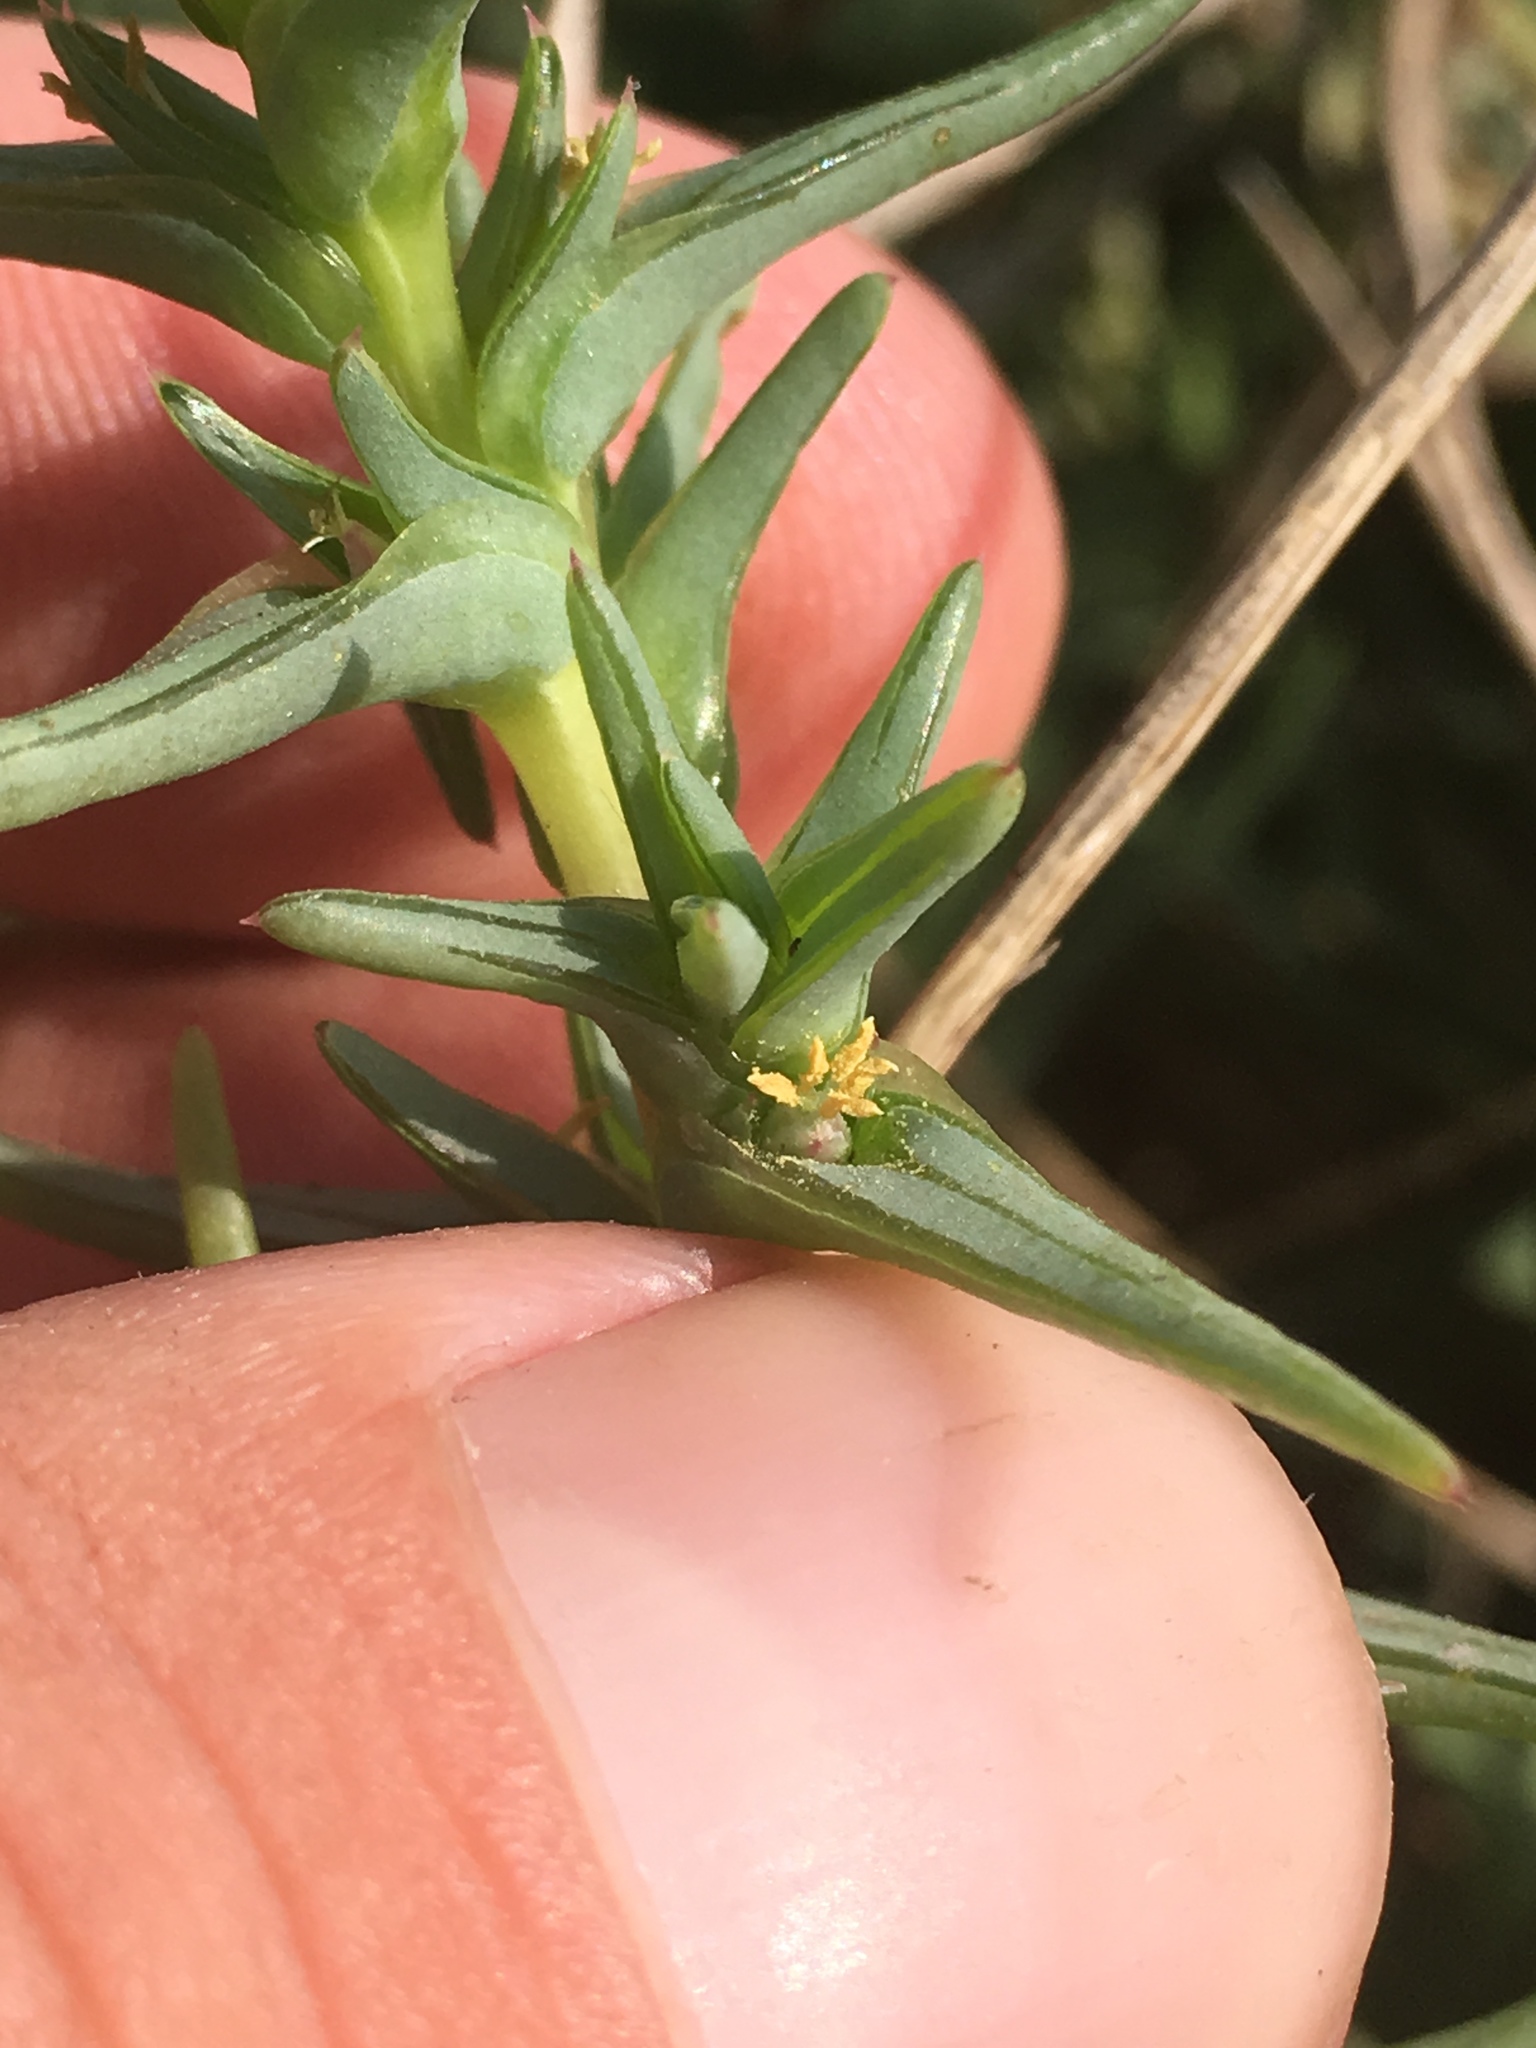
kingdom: Plantae
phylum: Tracheophyta
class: Magnoliopsida
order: Caryophyllales
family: Amaranthaceae
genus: Salsola
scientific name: Salsola soda
